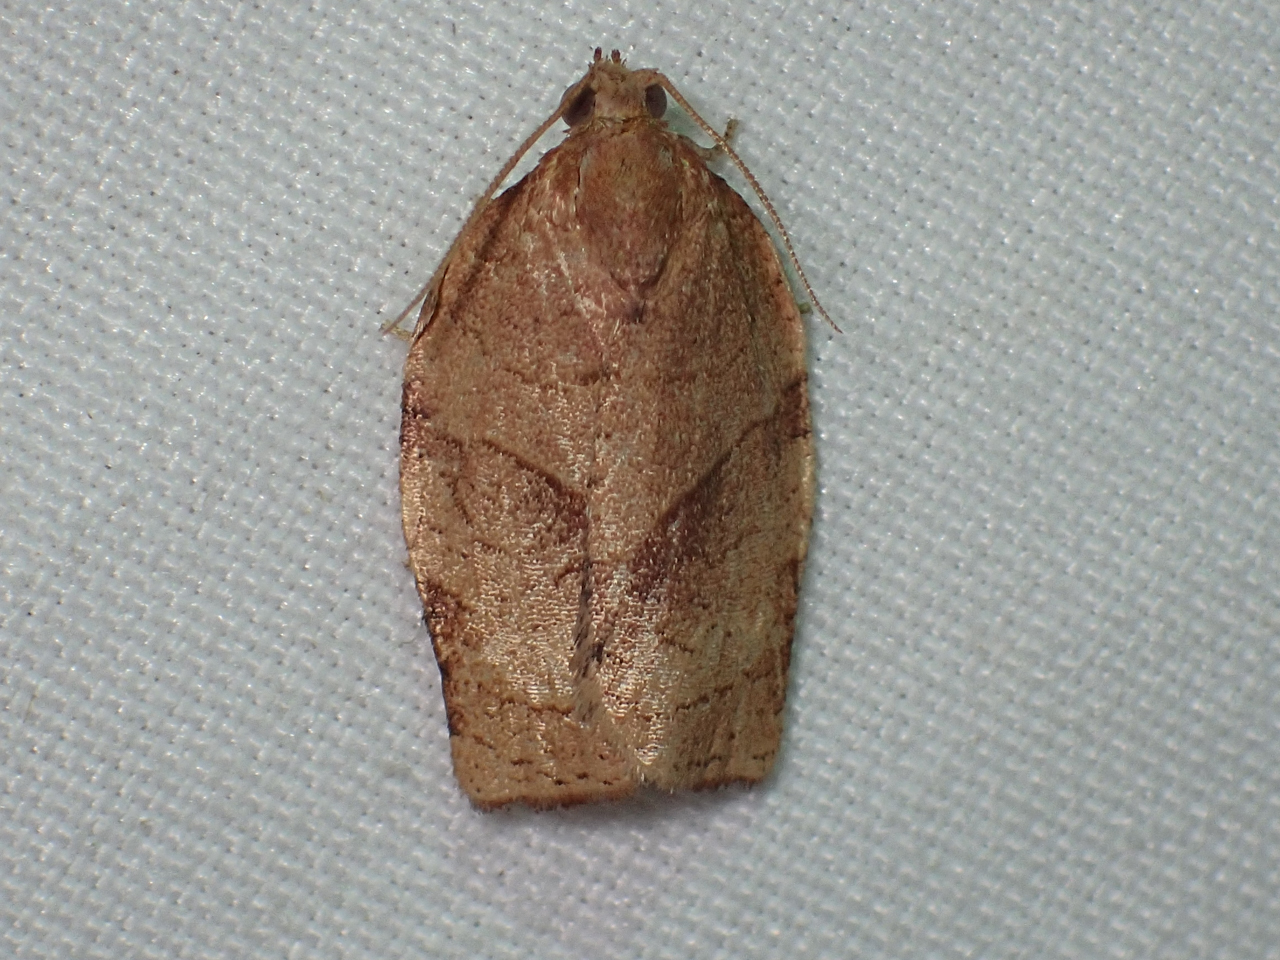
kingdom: Animalia
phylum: Arthropoda
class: Insecta
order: Lepidoptera
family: Tortricidae
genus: Choristoneura
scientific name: Choristoneura rosaceana
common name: Oblique-banded leafroller moth
